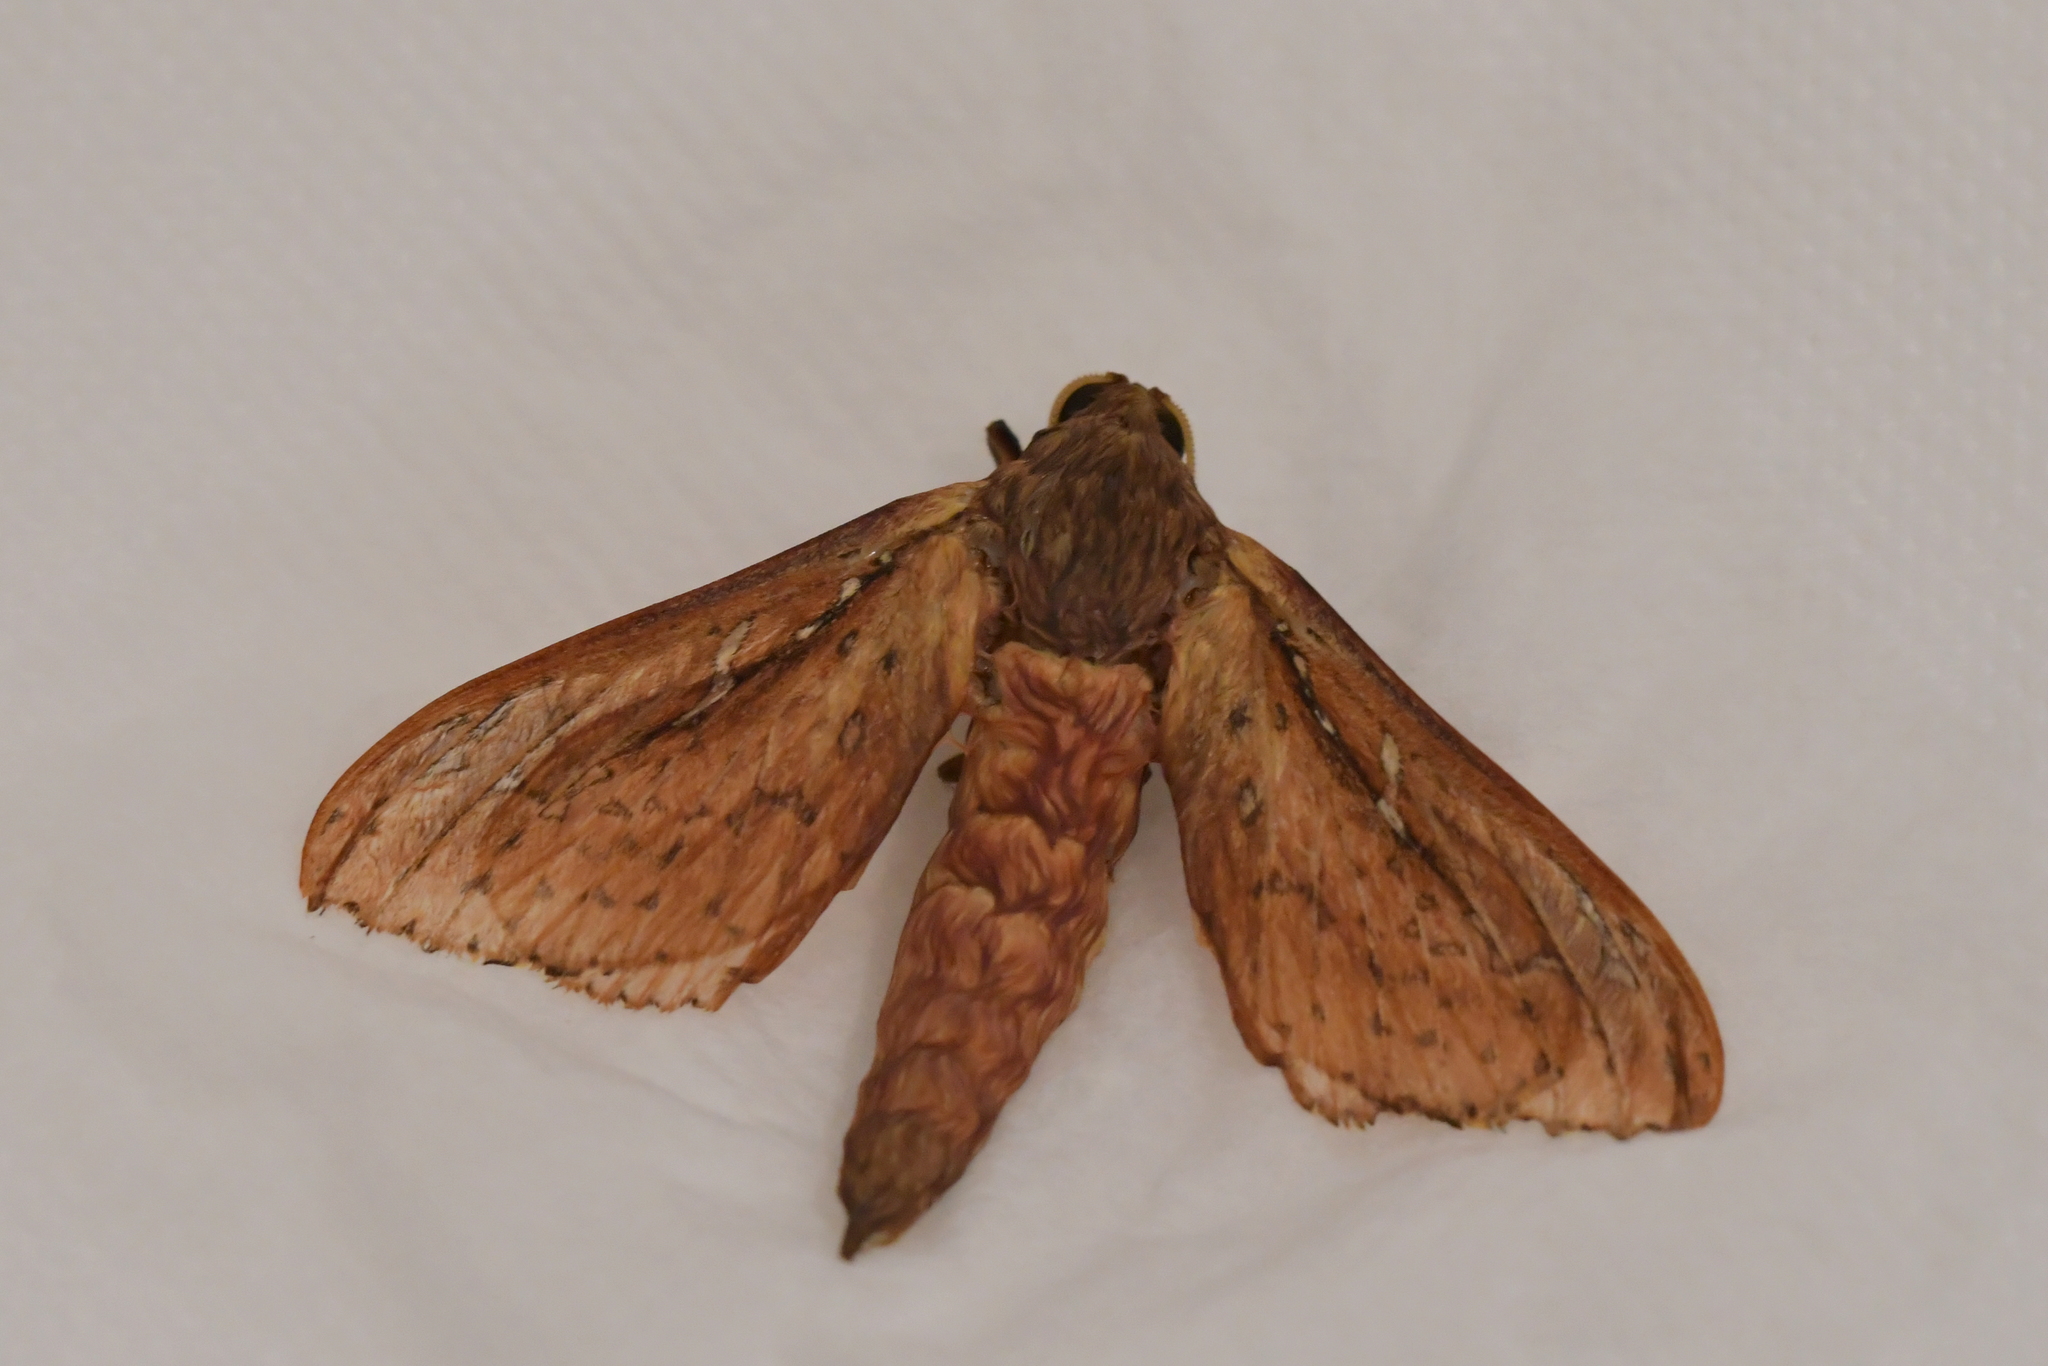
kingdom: Animalia
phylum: Arthropoda
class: Insecta
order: Lepidoptera
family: Hepialidae
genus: Wiseana
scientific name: Wiseana signata
